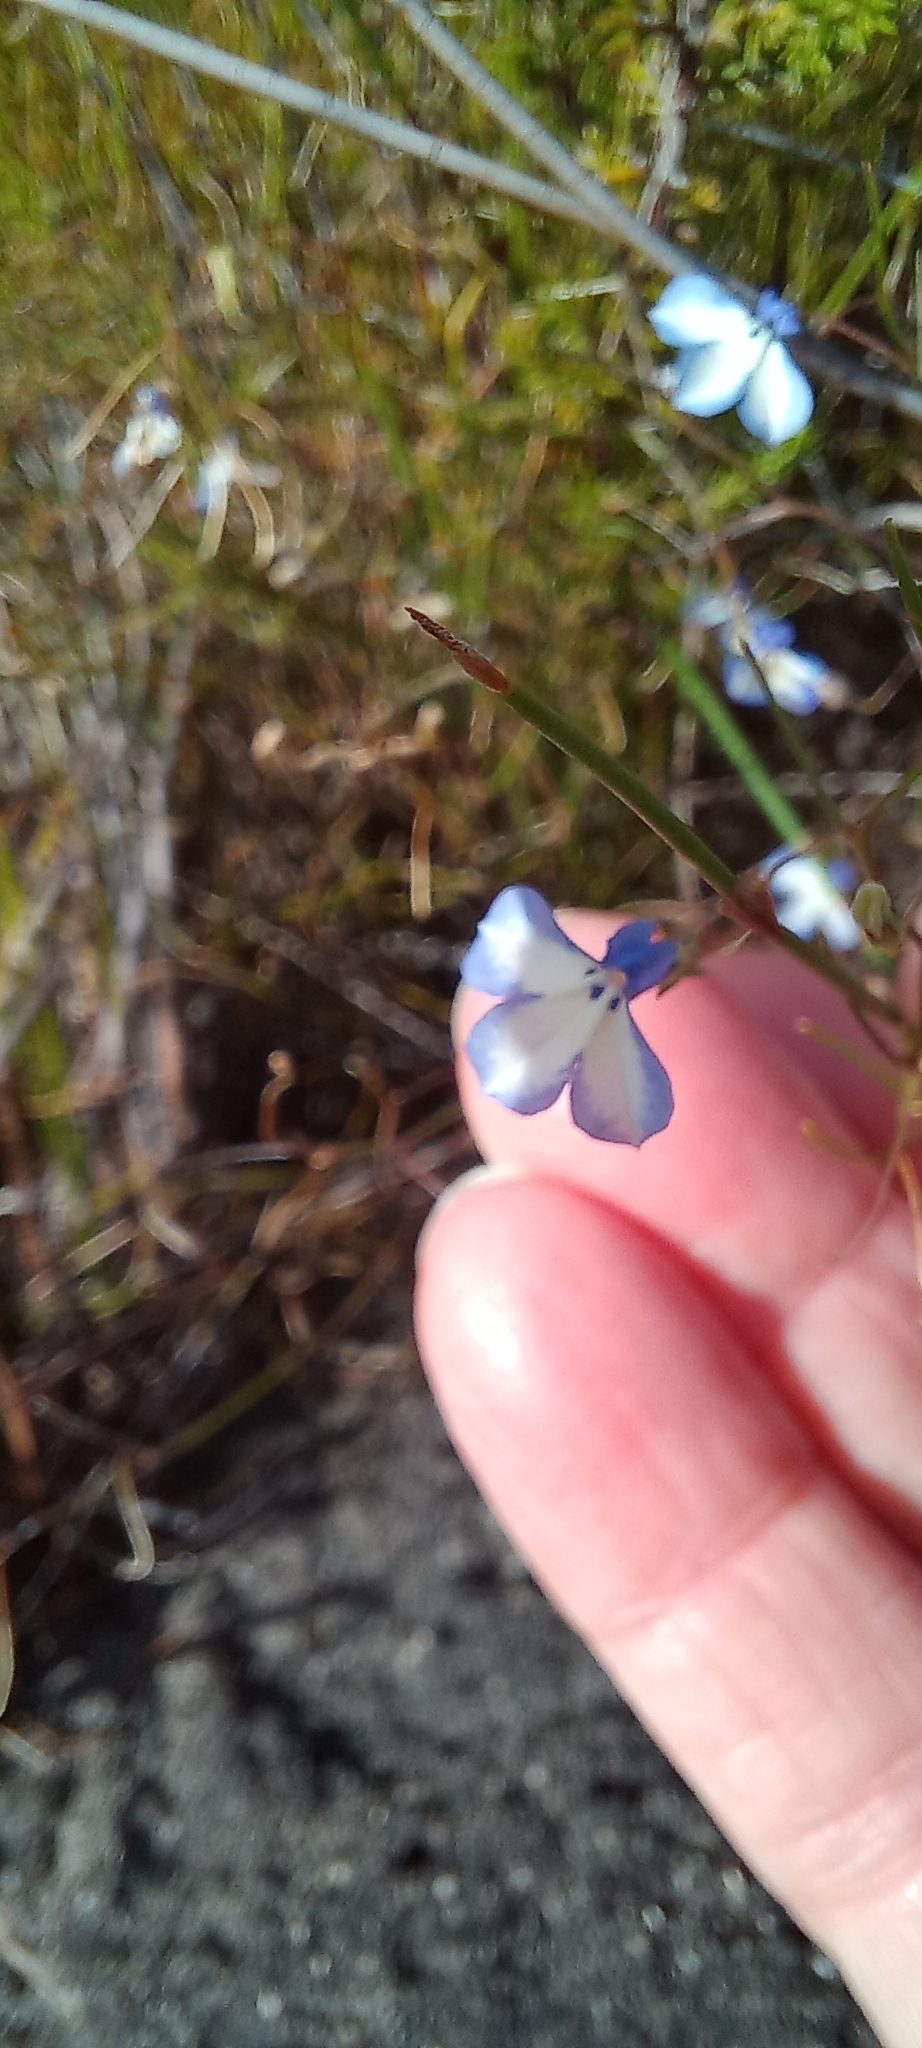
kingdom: Plantae
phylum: Tracheophyta
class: Magnoliopsida
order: Asterales
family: Campanulaceae
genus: Lobelia
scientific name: Lobelia setacea
